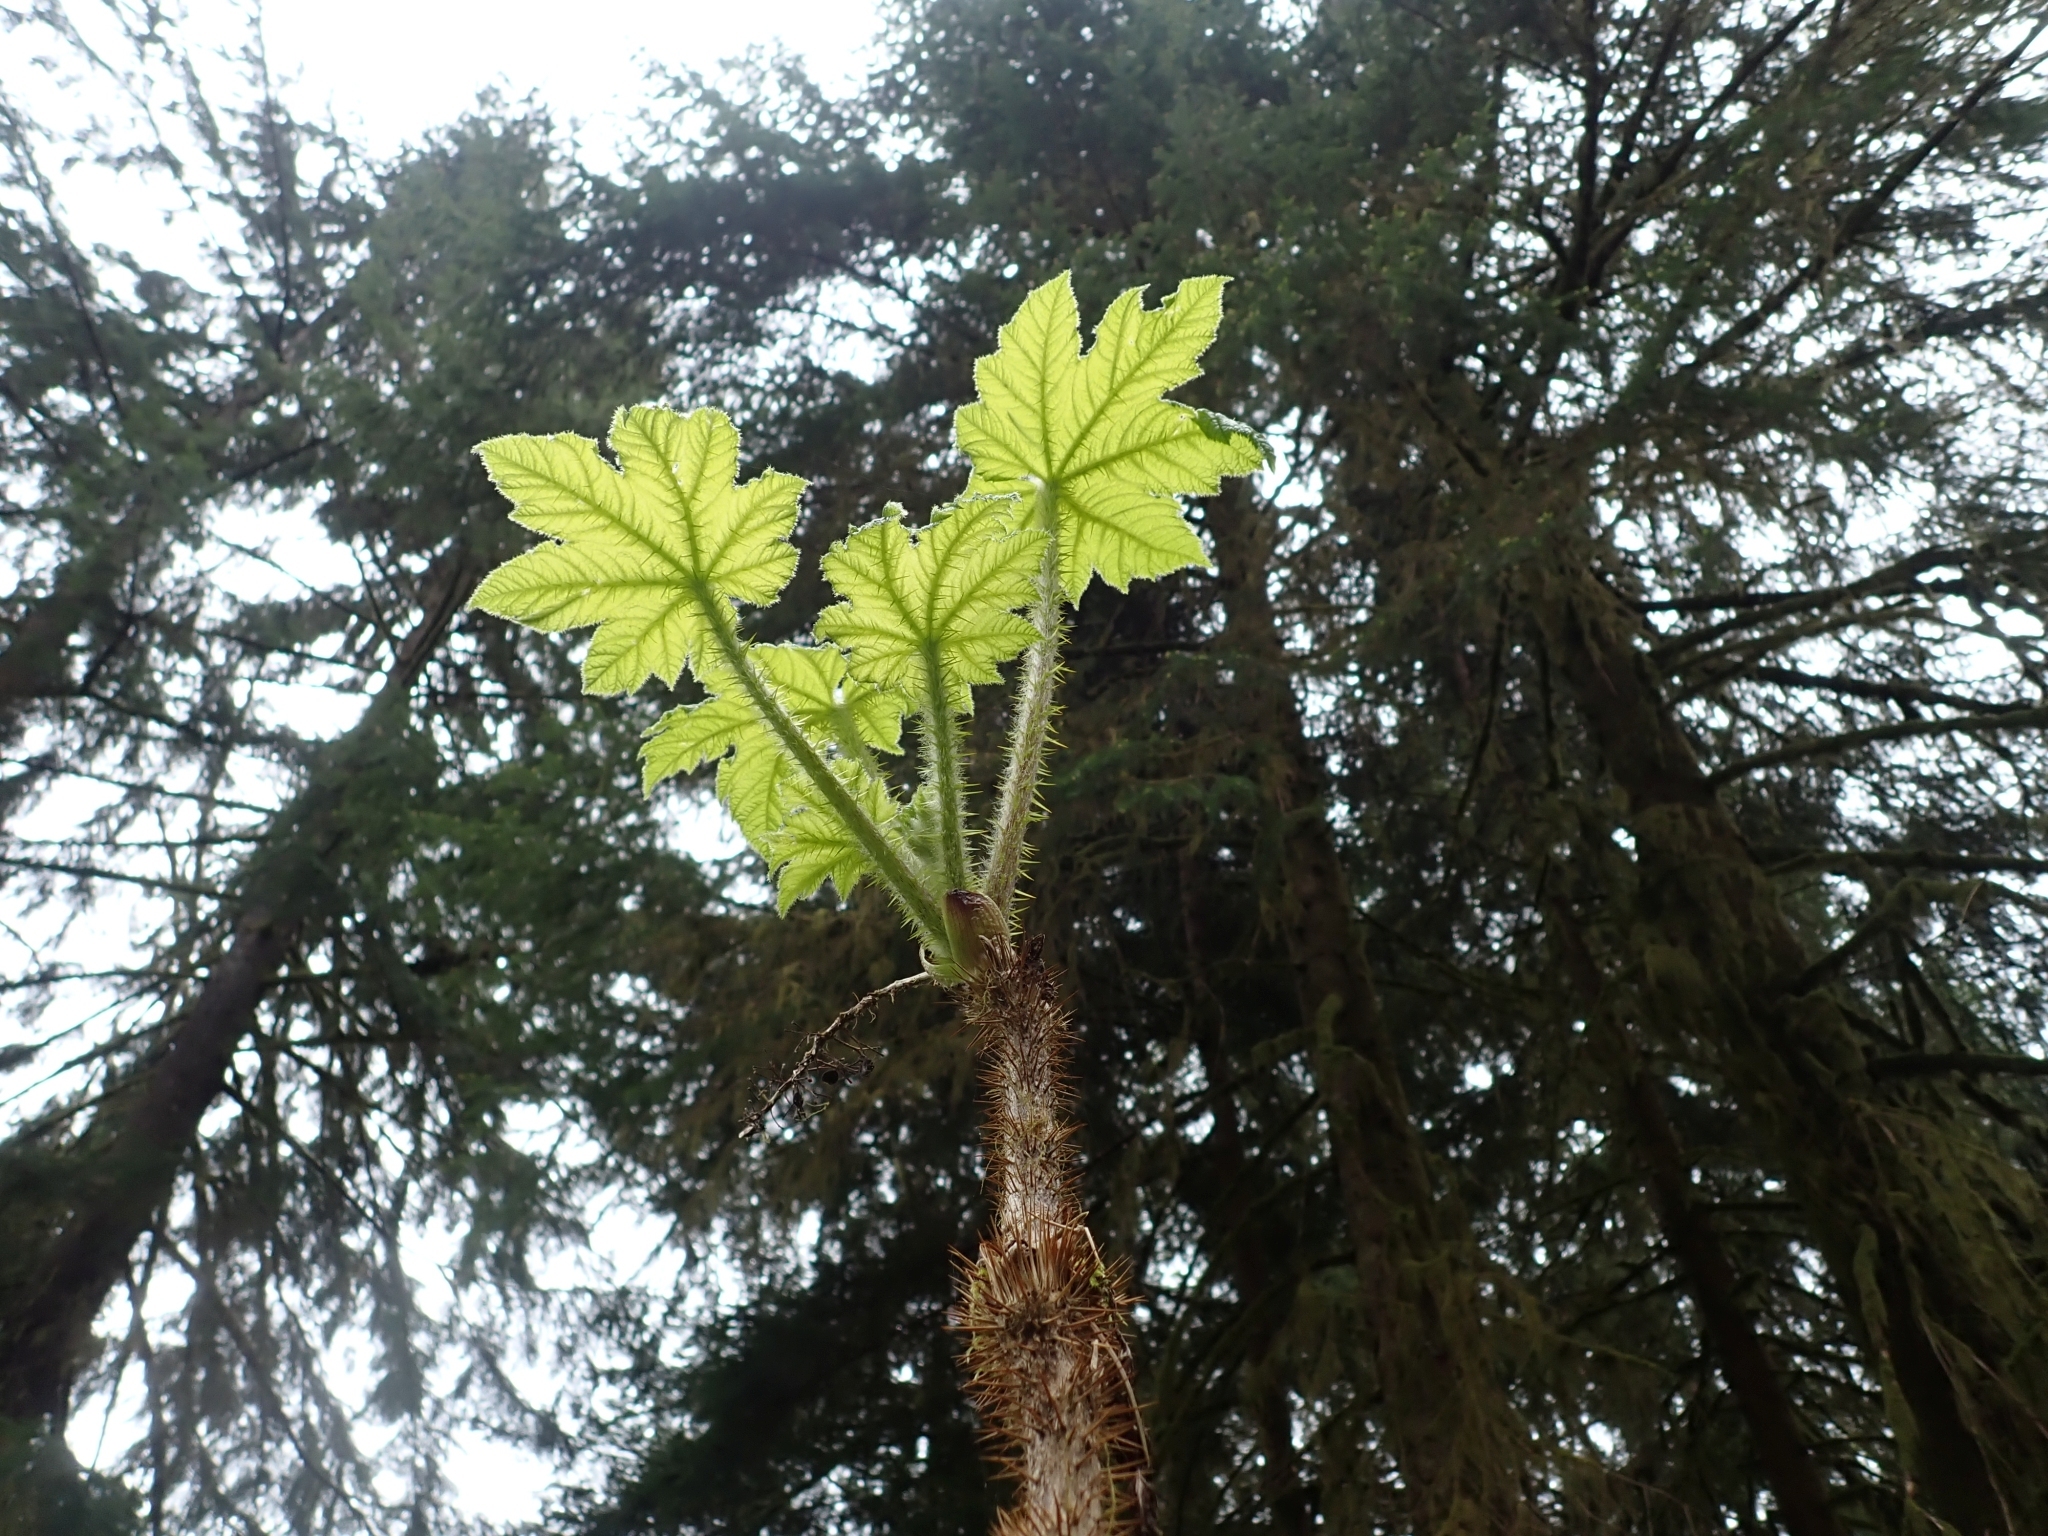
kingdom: Plantae
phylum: Tracheophyta
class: Magnoliopsida
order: Apiales
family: Araliaceae
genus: Oplopanax
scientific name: Oplopanax horridus
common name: Devil's walking-stick
